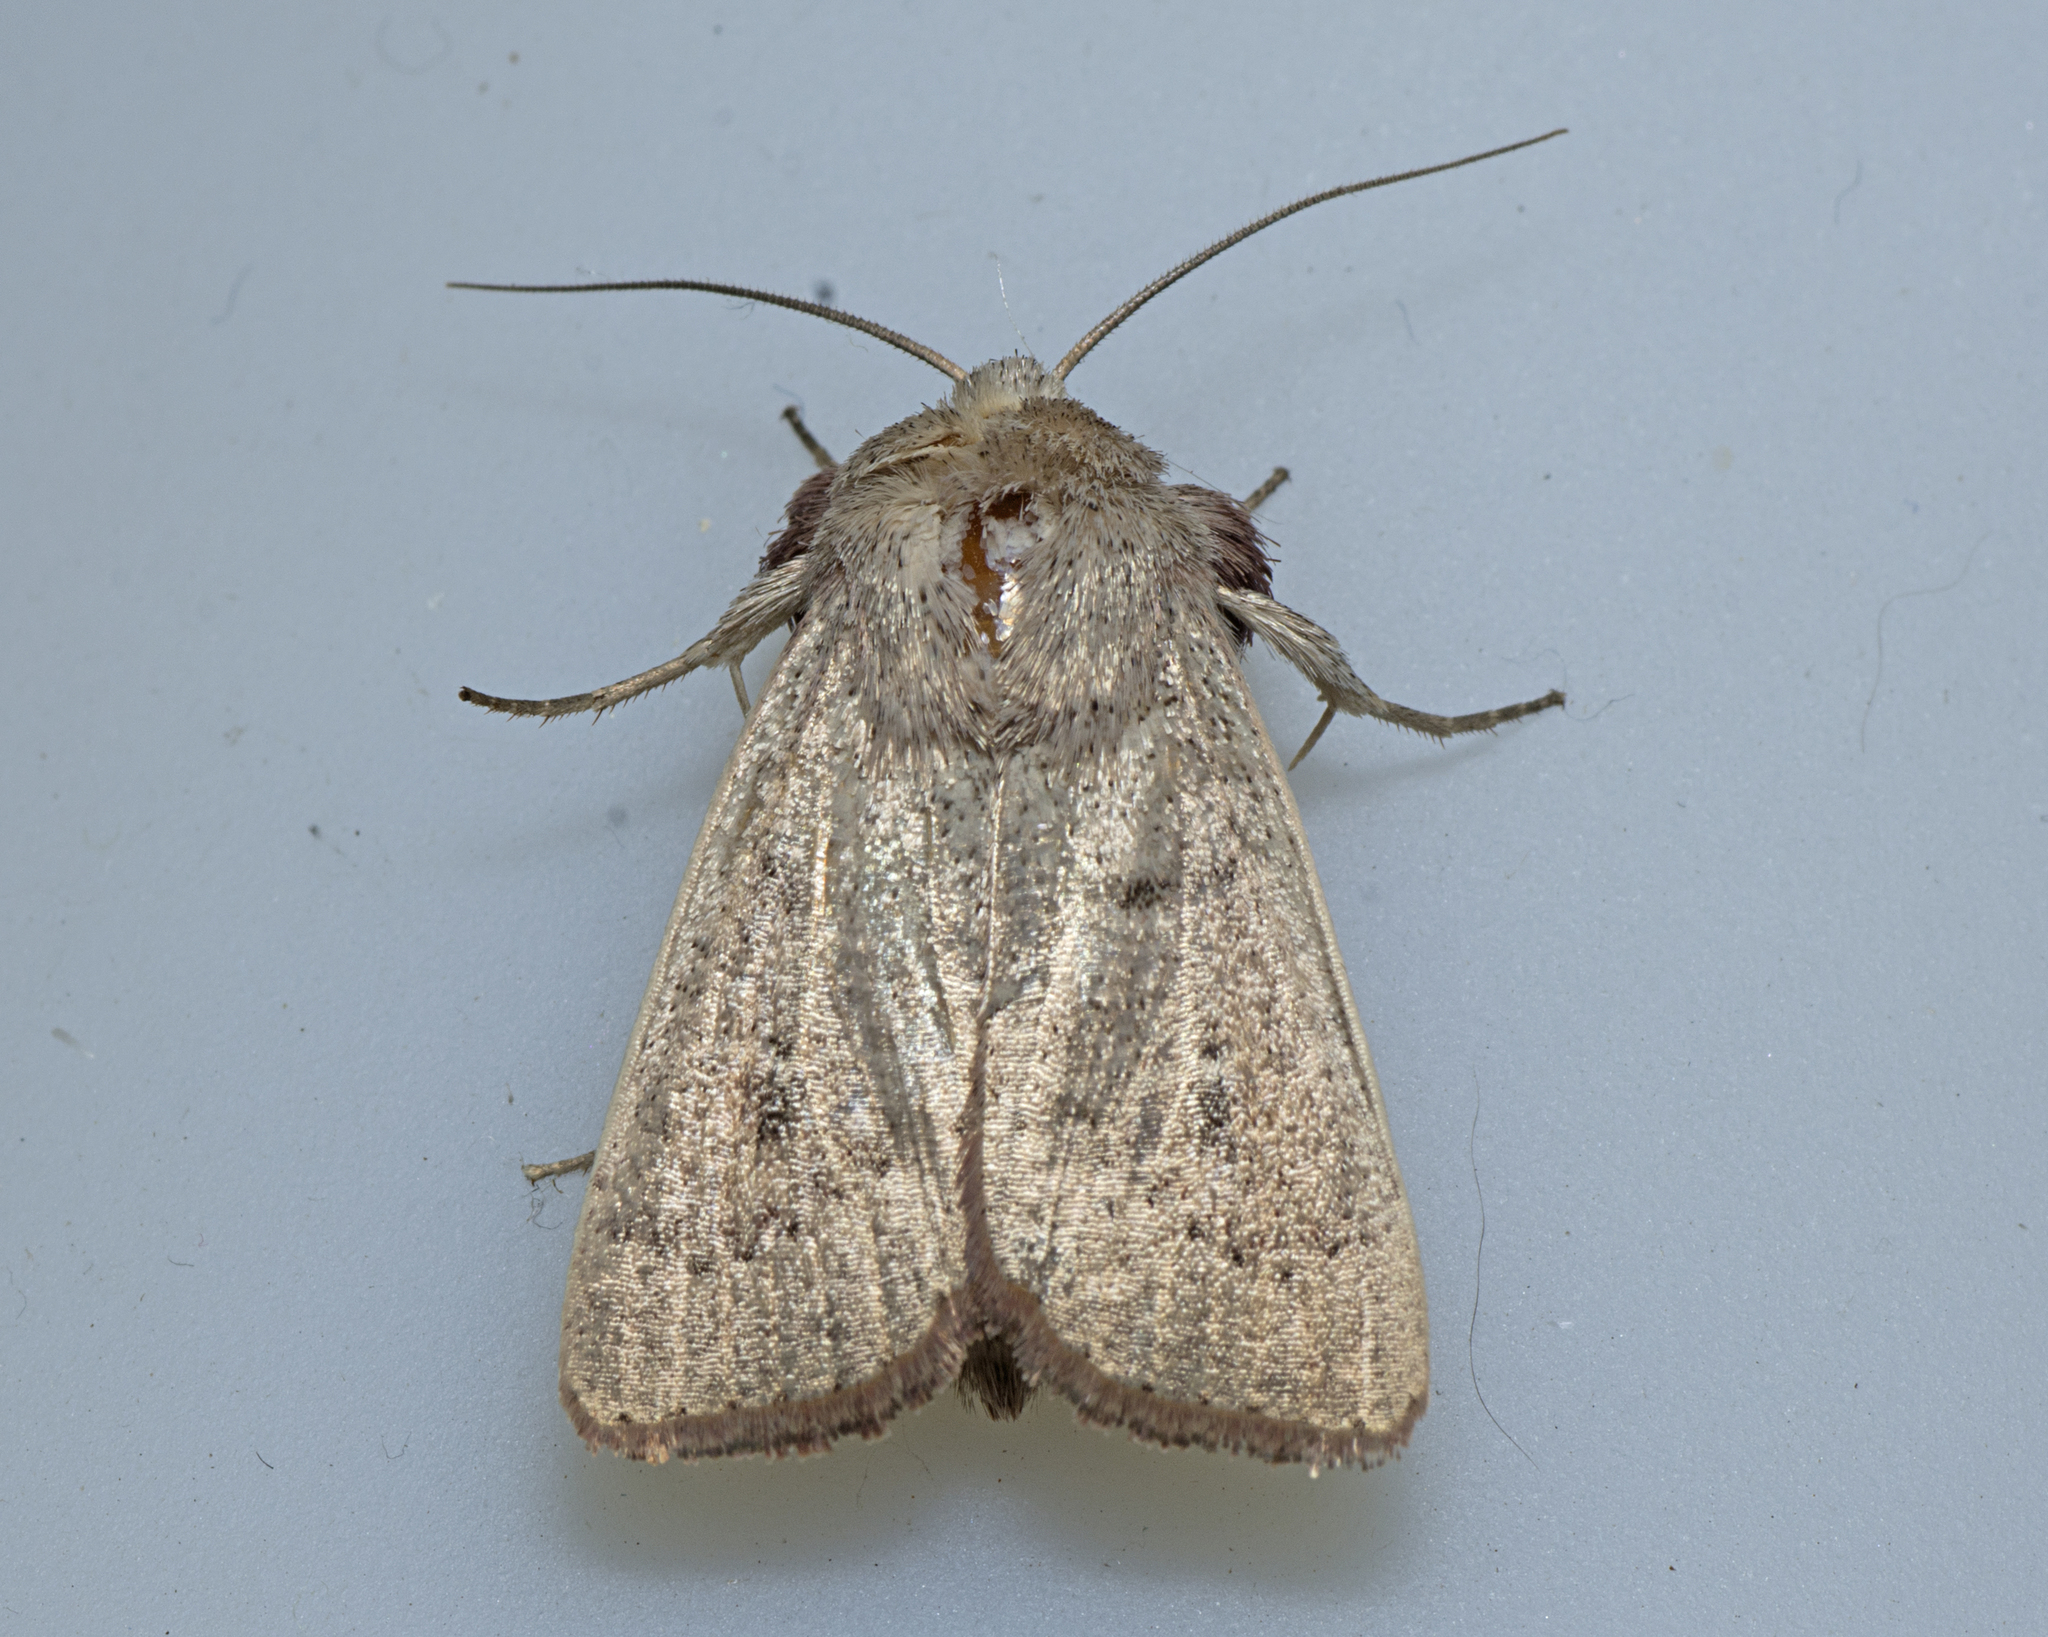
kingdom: Animalia
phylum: Arthropoda
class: Insecta
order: Lepidoptera
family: Noctuidae
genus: Leucania
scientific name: Leucania dasycnema
